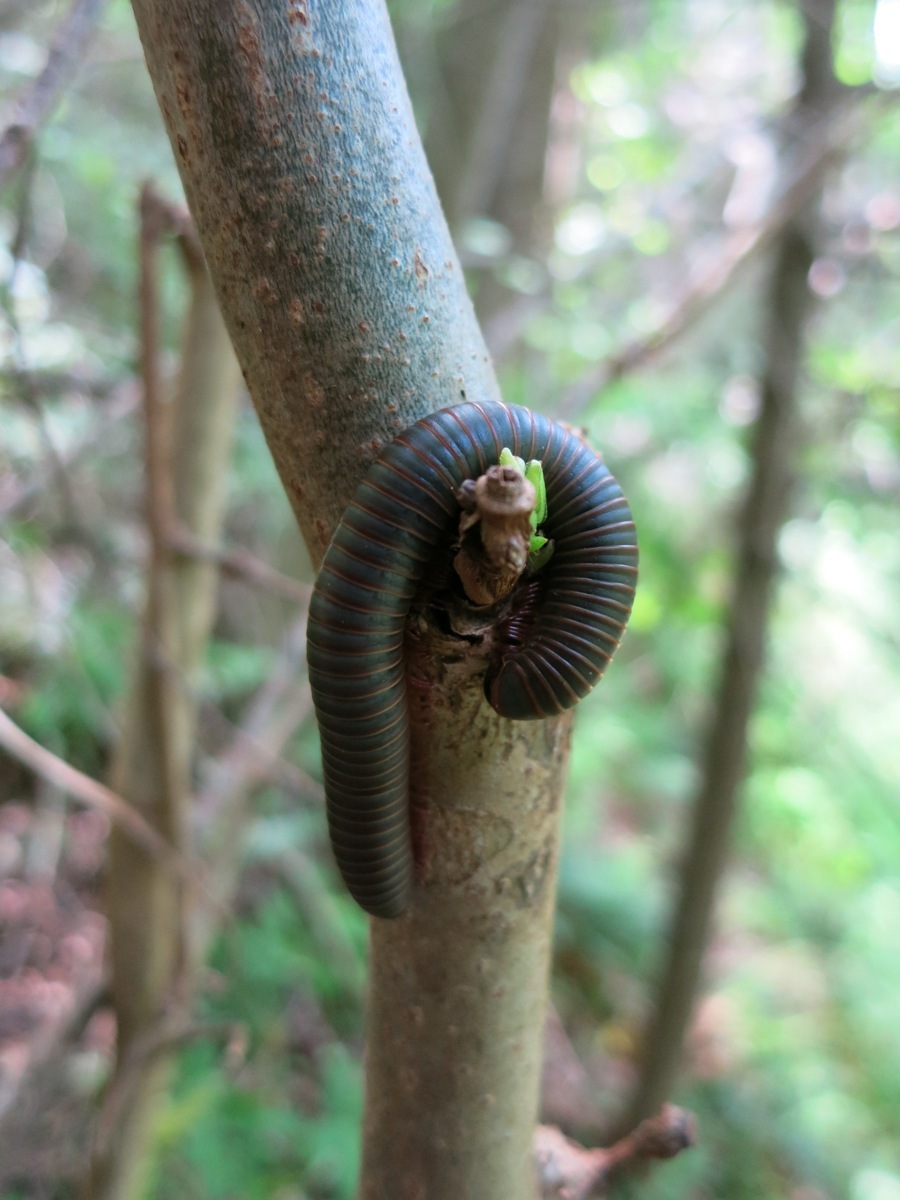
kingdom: Animalia
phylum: Arthropoda
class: Diplopoda
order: Spirobolida
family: Spirobolidae
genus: Narceus
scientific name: Narceus
